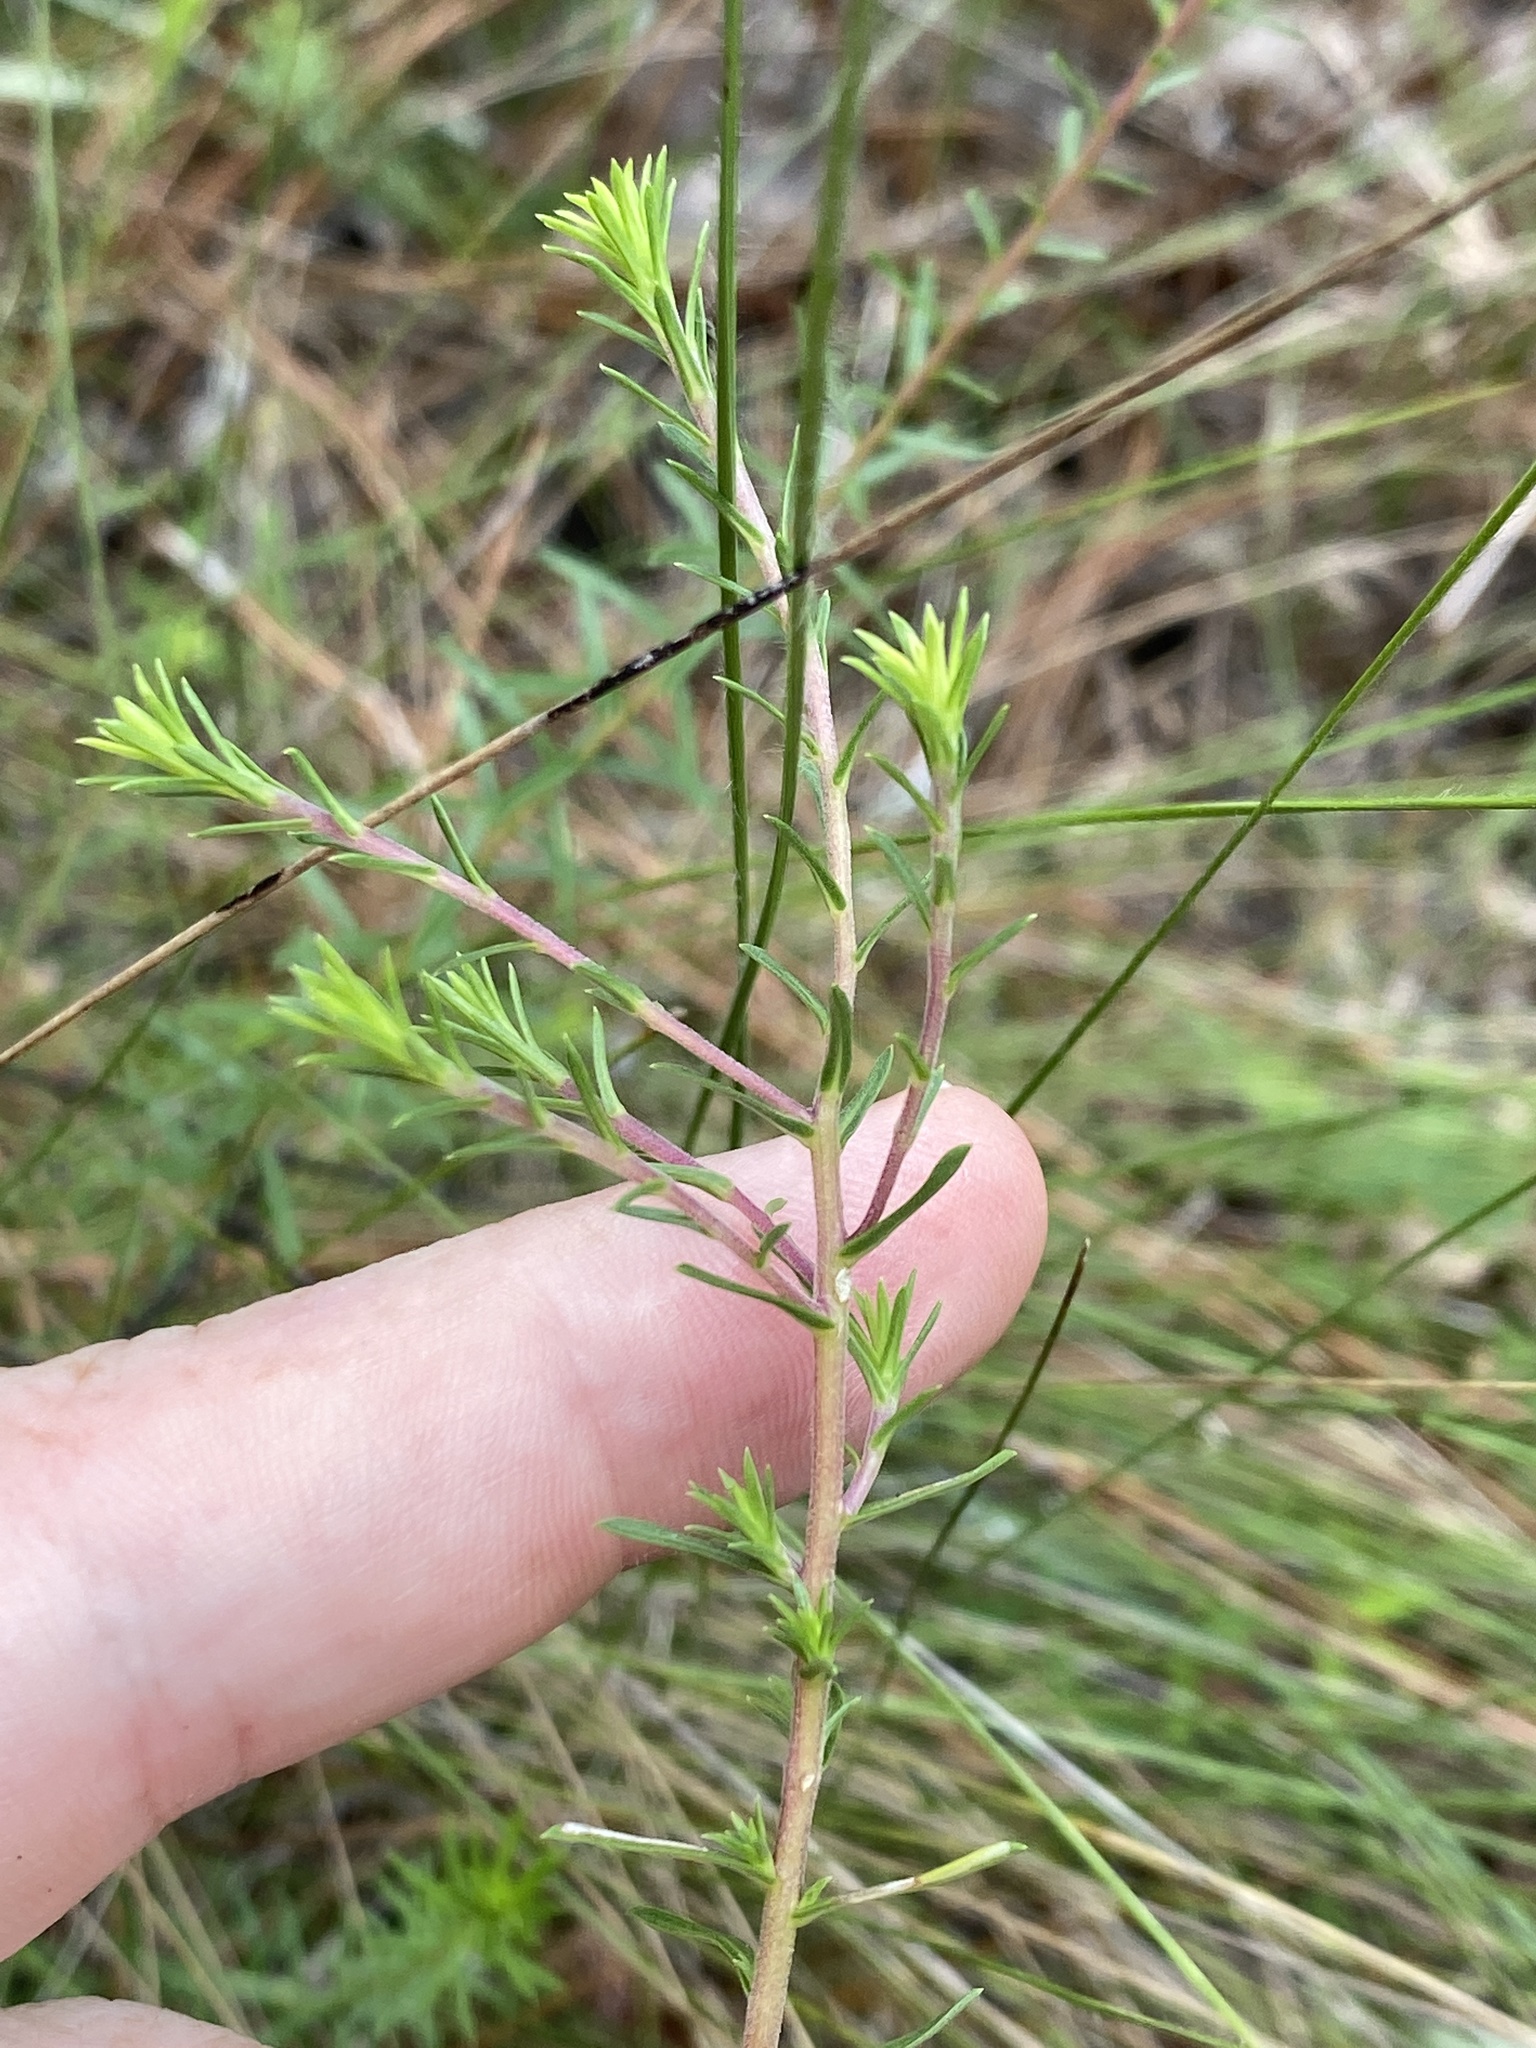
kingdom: Plantae
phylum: Tracheophyta
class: Magnoliopsida
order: Asterales
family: Asteraceae
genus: Ionactis
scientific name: Ionactis linariifolia
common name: Flax-leaf aster
